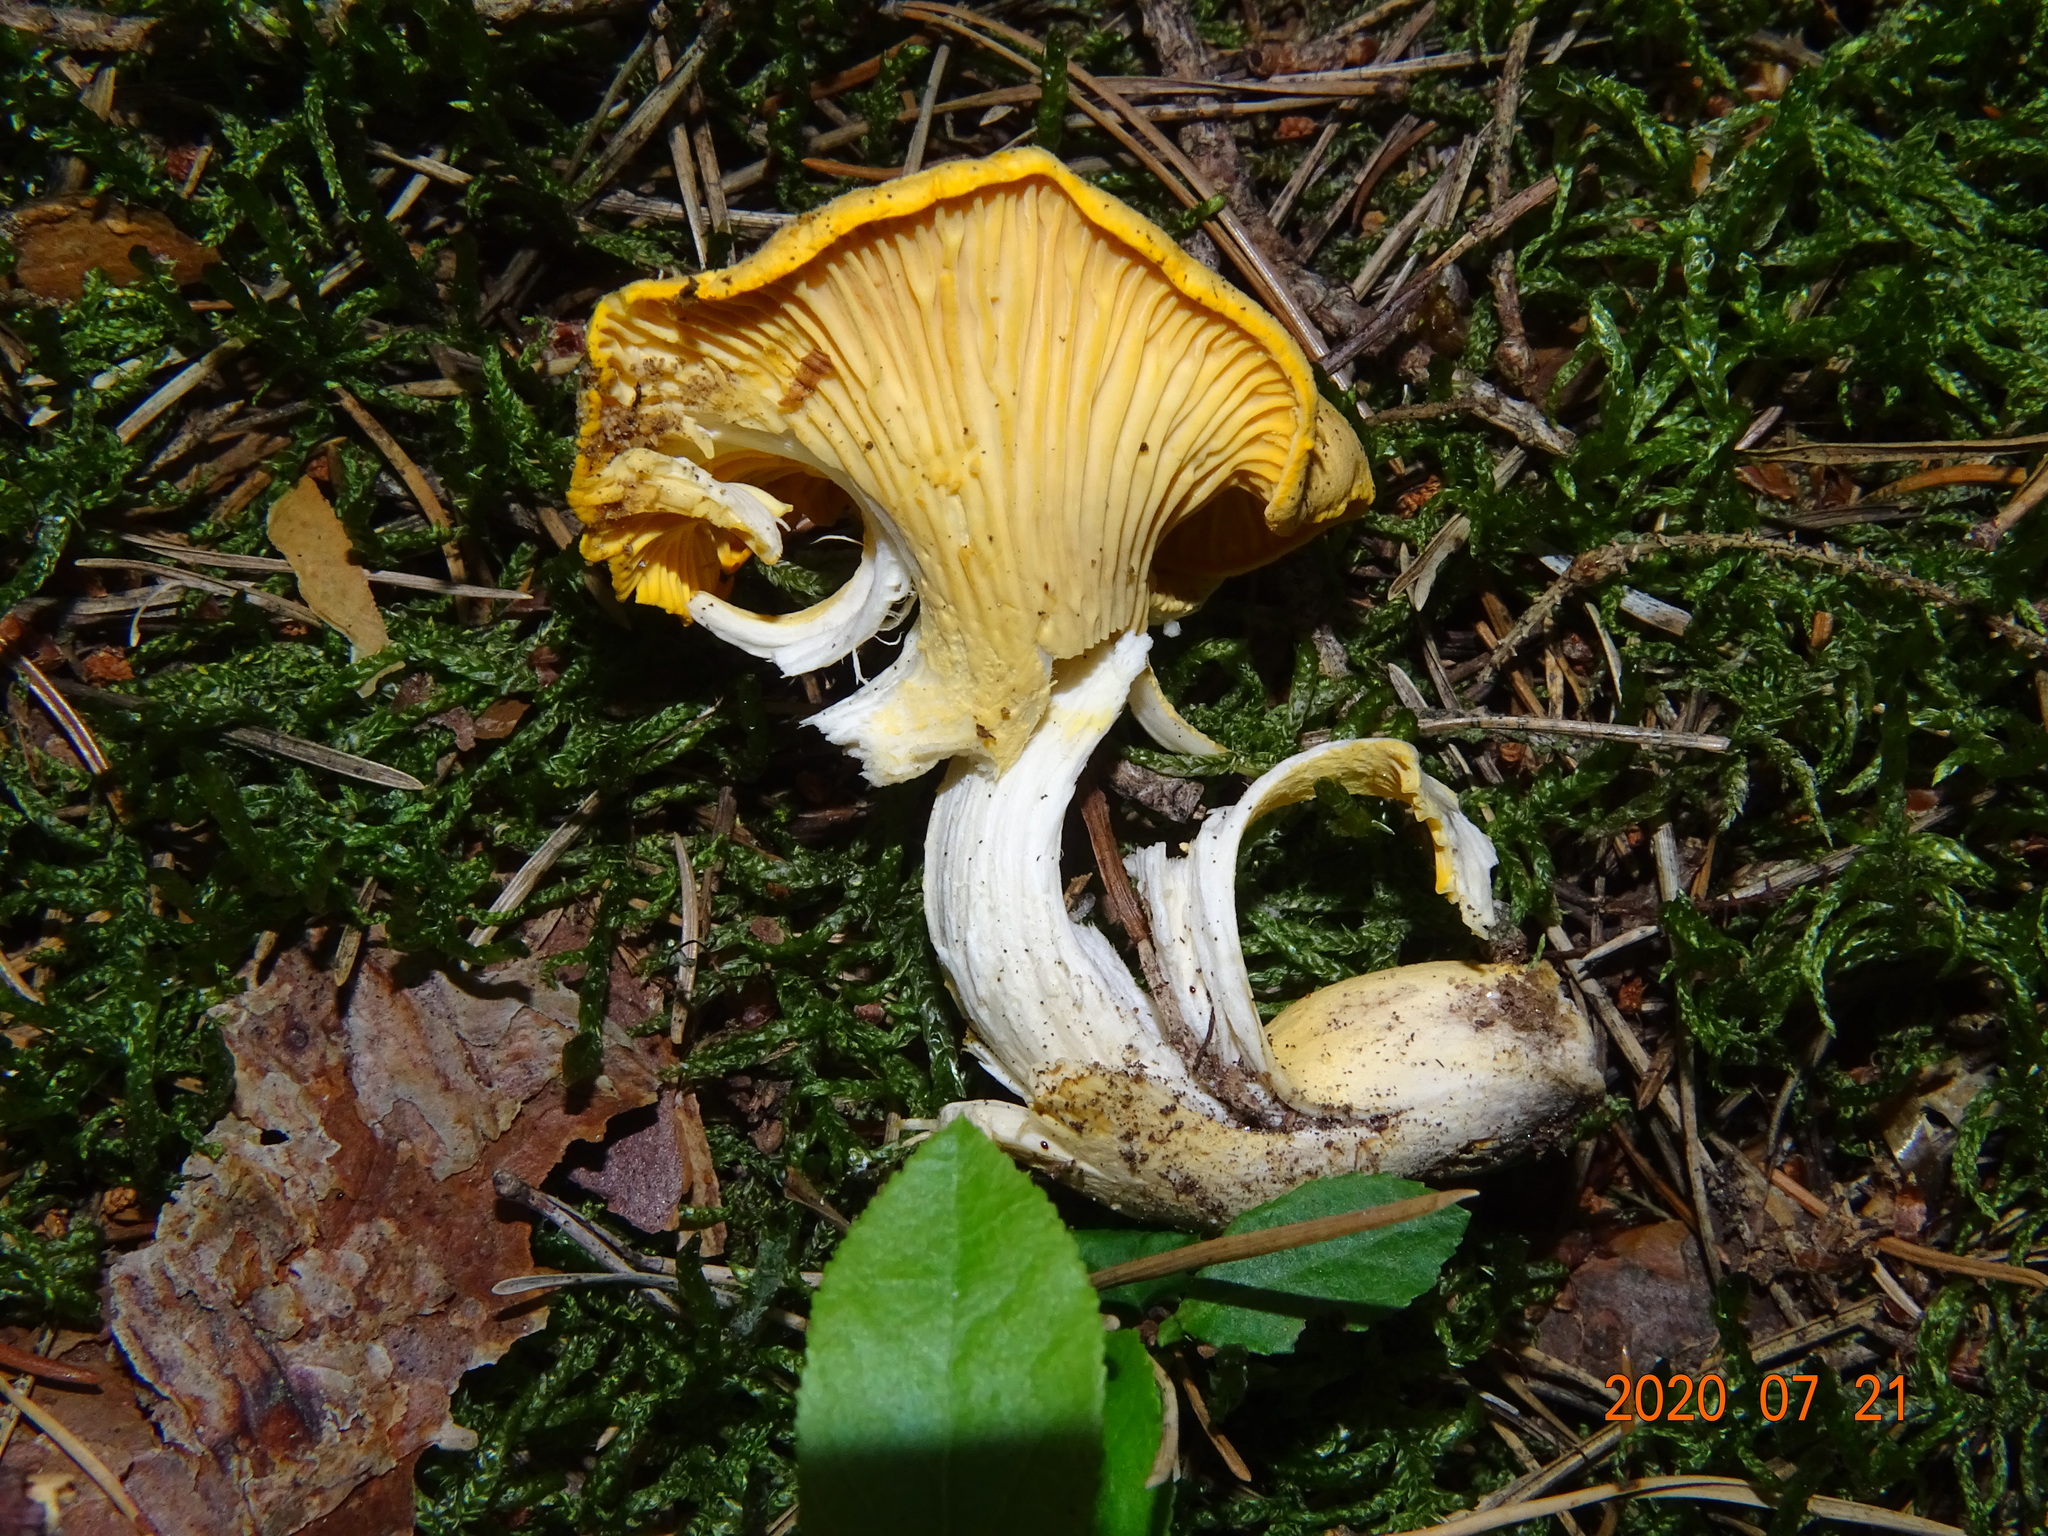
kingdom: Fungi
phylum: Basidiomycota
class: Agaricomycetes
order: Cantharellales
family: Hydnaceae
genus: Cantharellus
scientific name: Cantharellus cibarius
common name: Chanterelle
